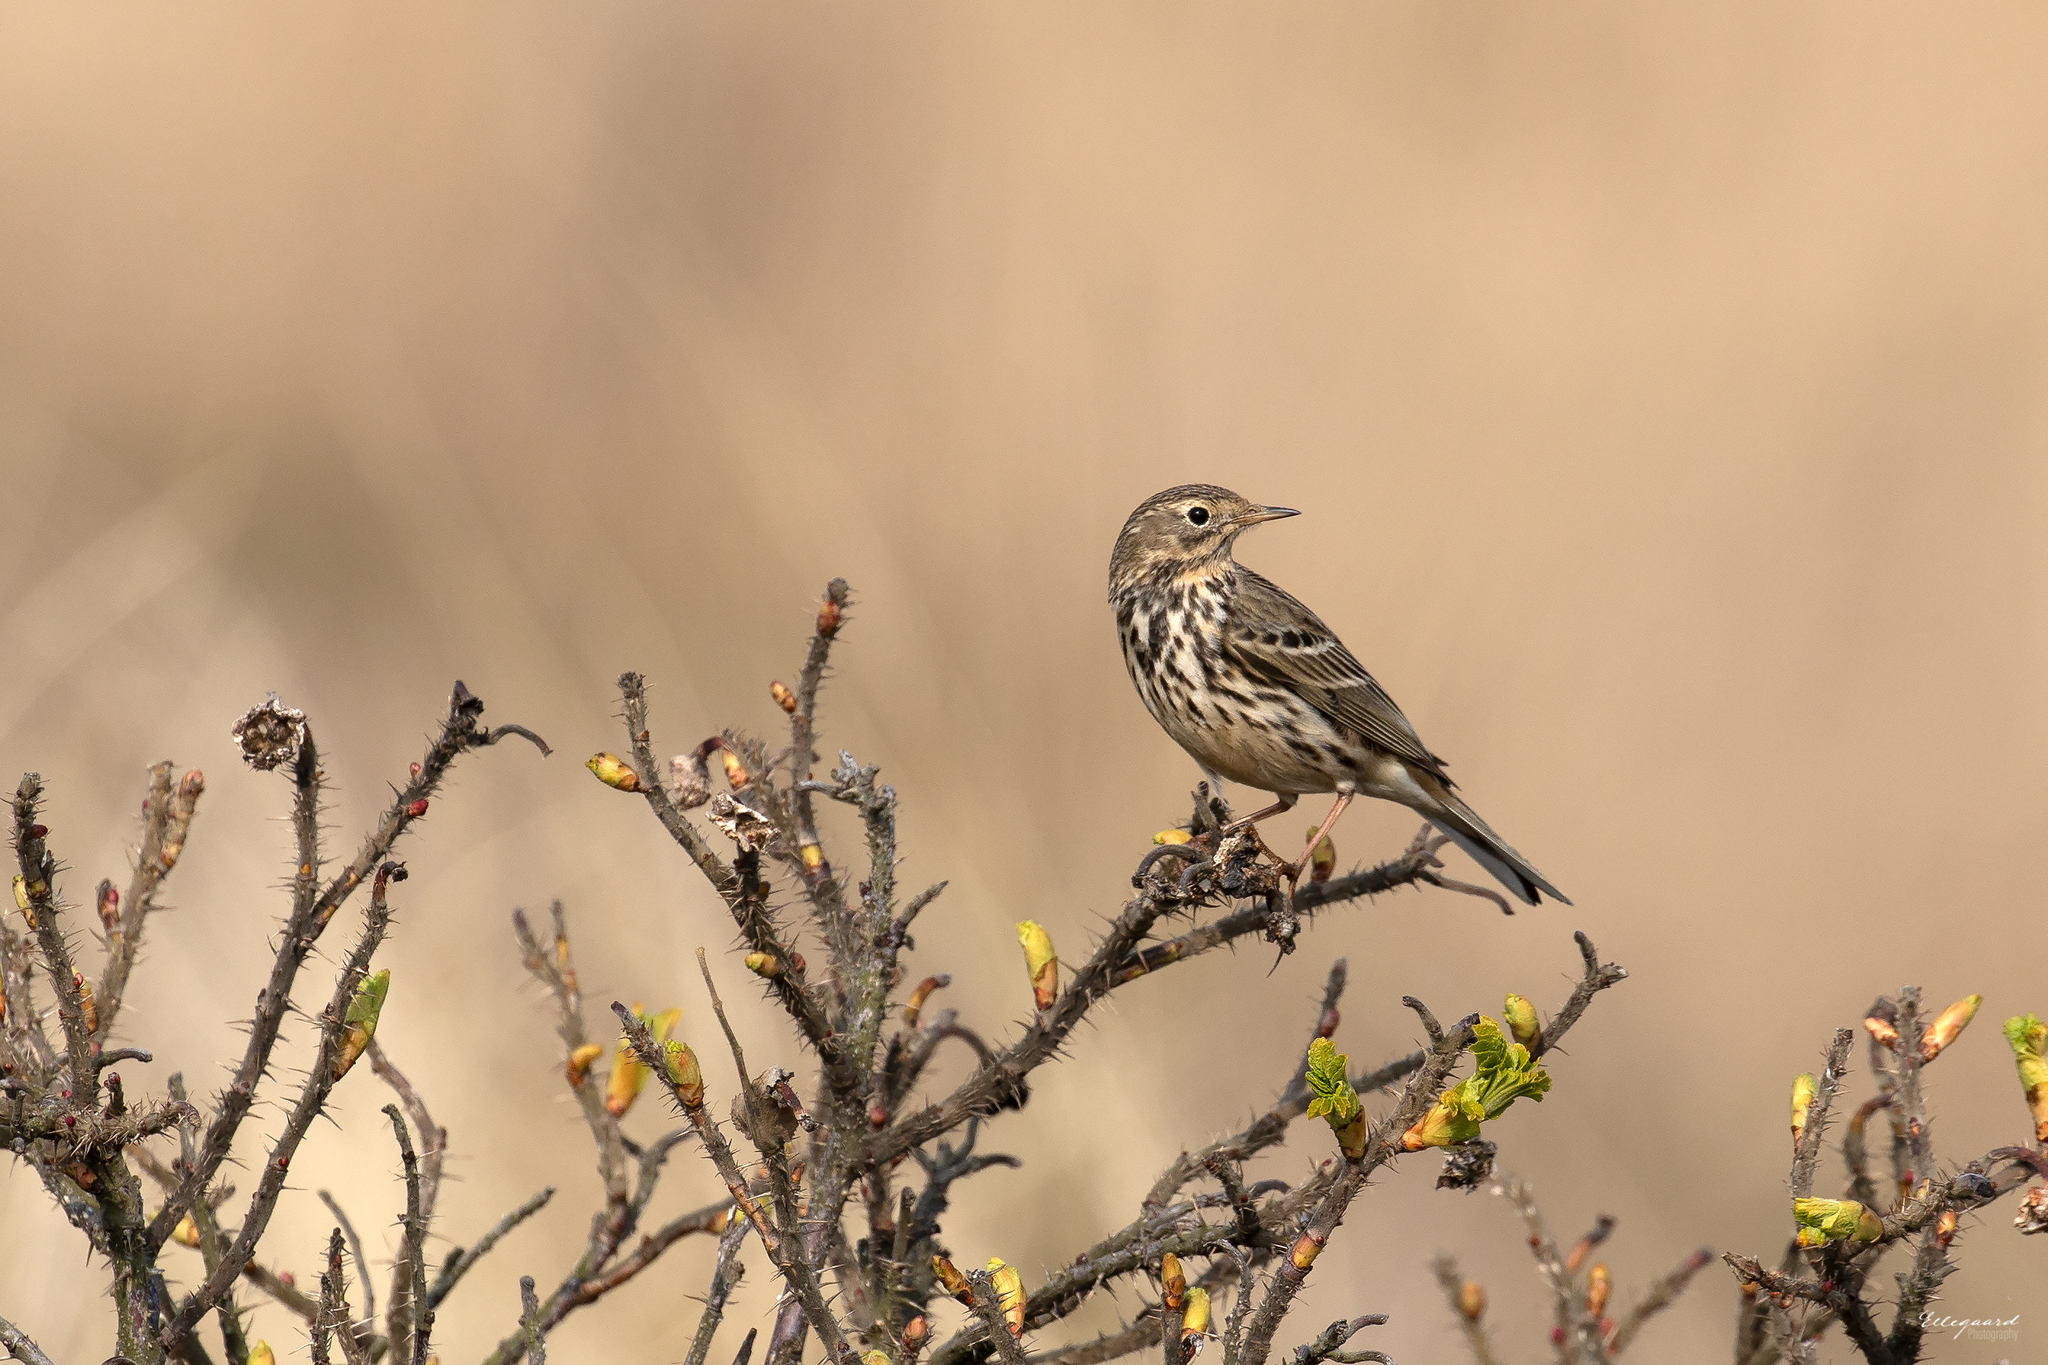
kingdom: Animalia
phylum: Chordata
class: Aves
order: Passeriformes
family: Motacillidae
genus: Anthus
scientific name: Anthus pratensis
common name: Meadow pipit
